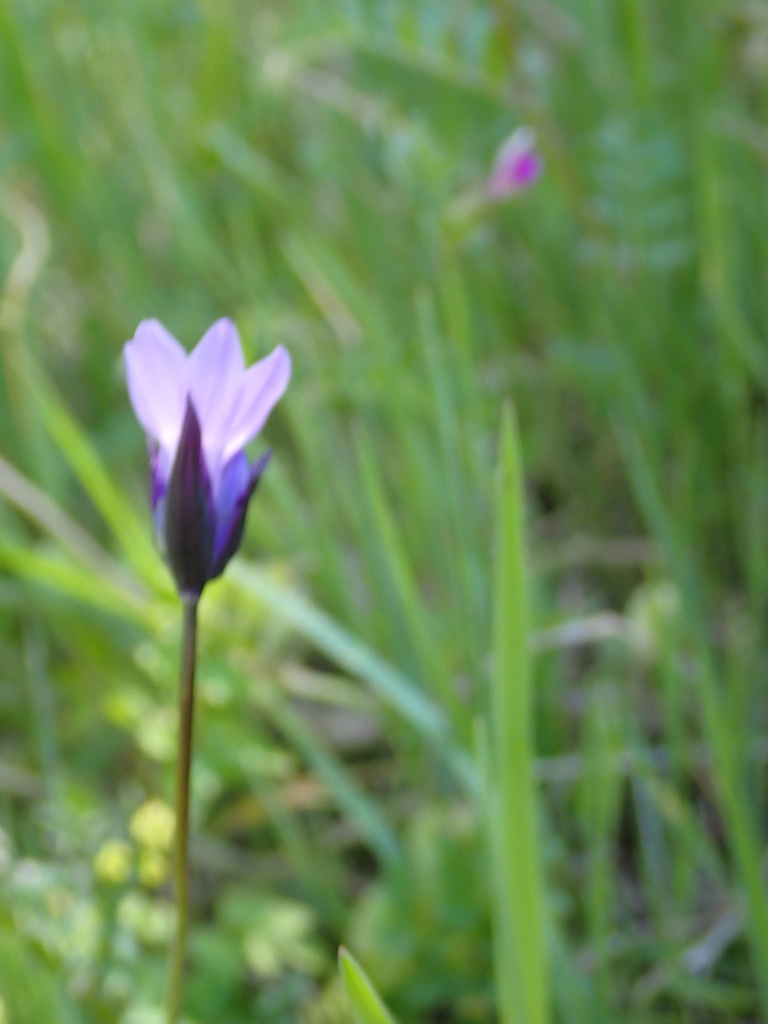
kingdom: Plantae
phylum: Tracheophyta
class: Liliopsida
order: Asparagales
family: Asparagaceae
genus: Dipterostemon
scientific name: Dipterostemon capitatus
